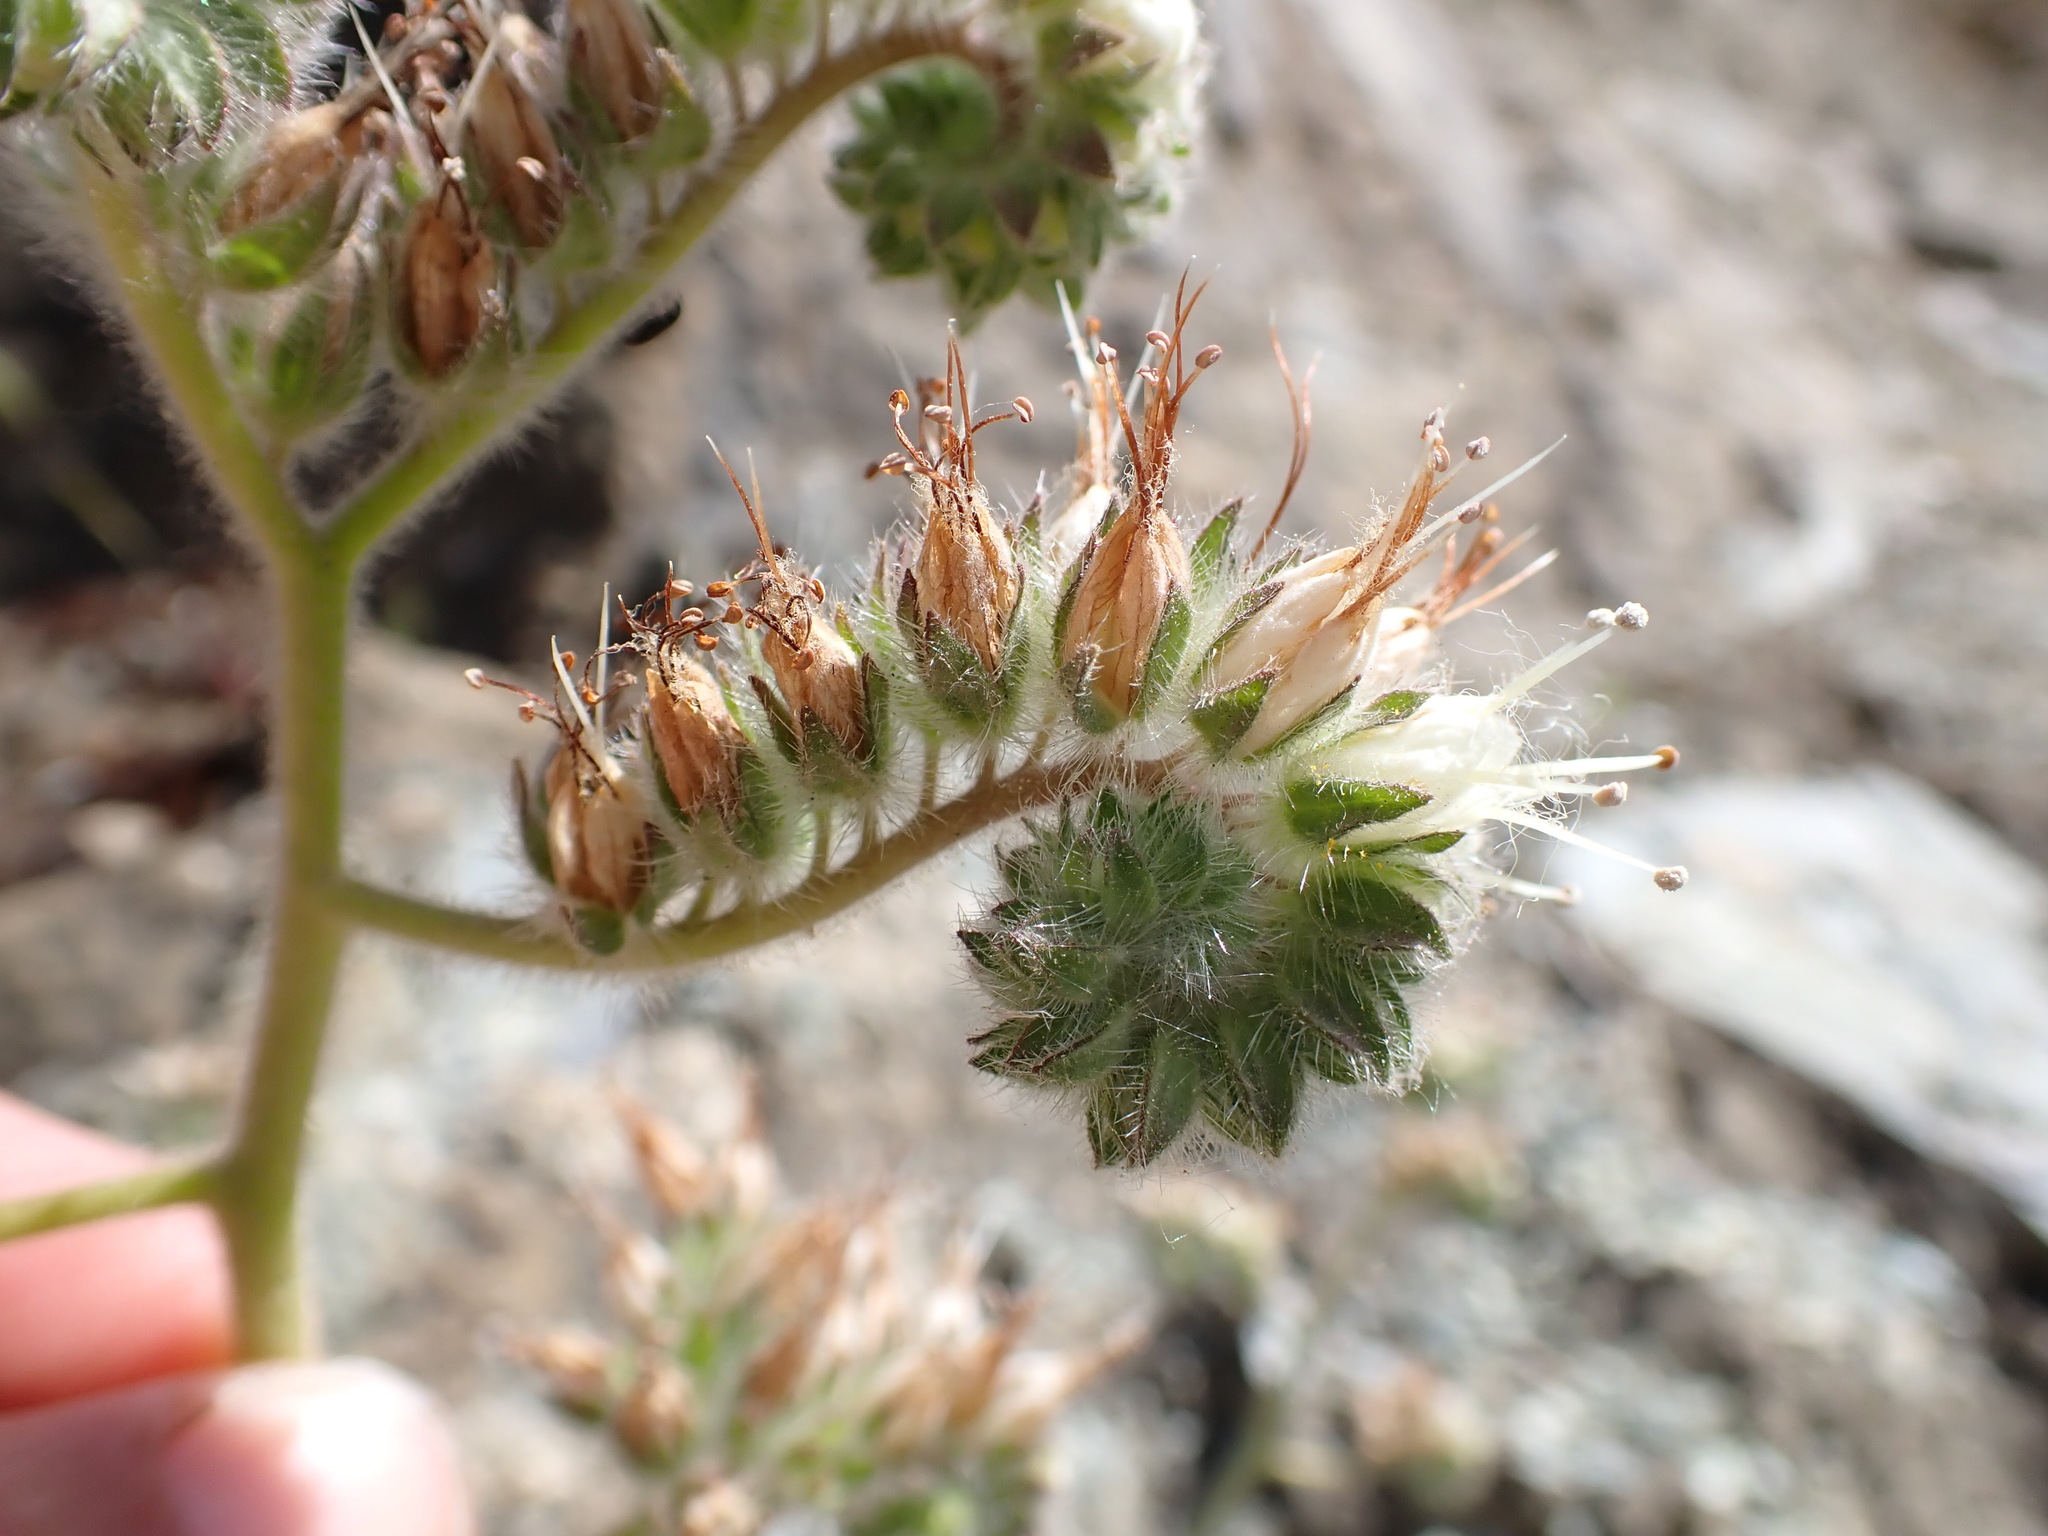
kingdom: Plantae
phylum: Tracheophyta
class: Magnoliopsida
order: Boraginales
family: Hydrophyllaceae
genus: Phacelia
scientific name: Phacelia imbricata
